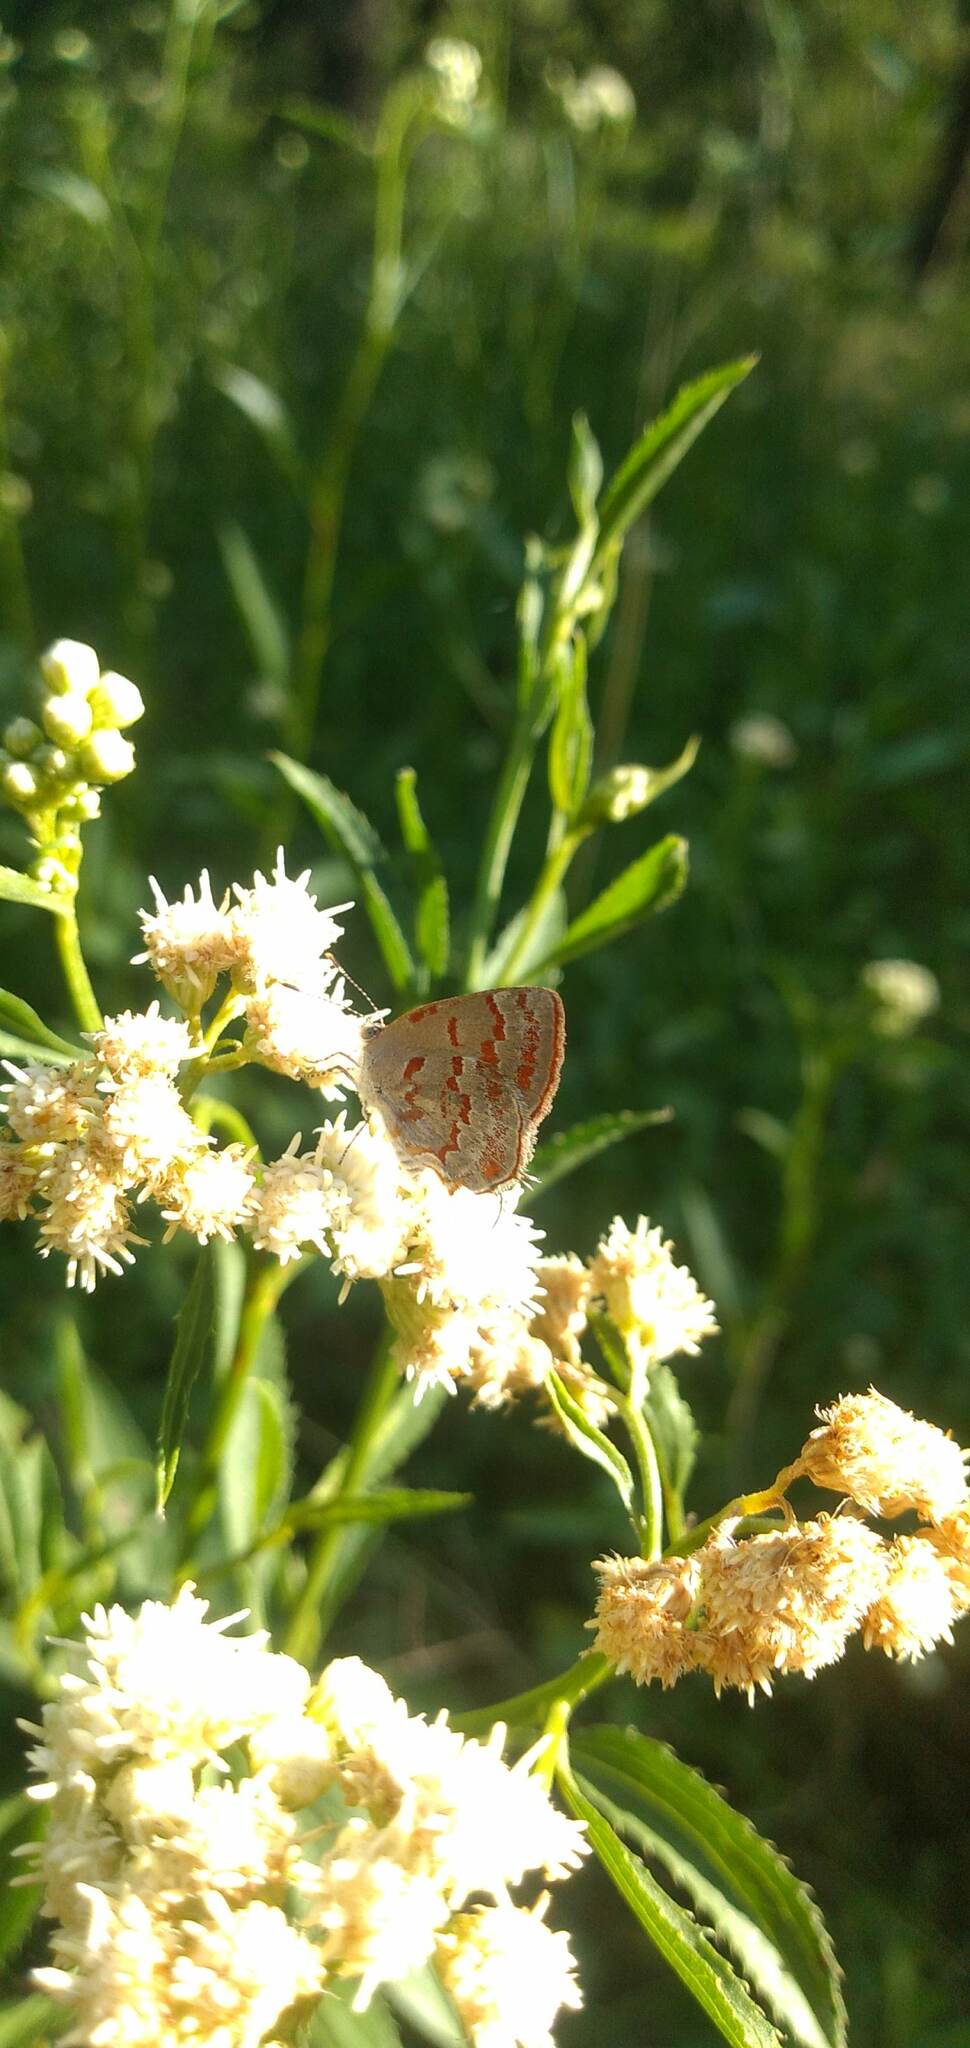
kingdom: Animalia
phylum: Arthropoda
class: Insecta
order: Lepidoptera
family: Lycaenidae
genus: Thecla
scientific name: Thecla cruenta
